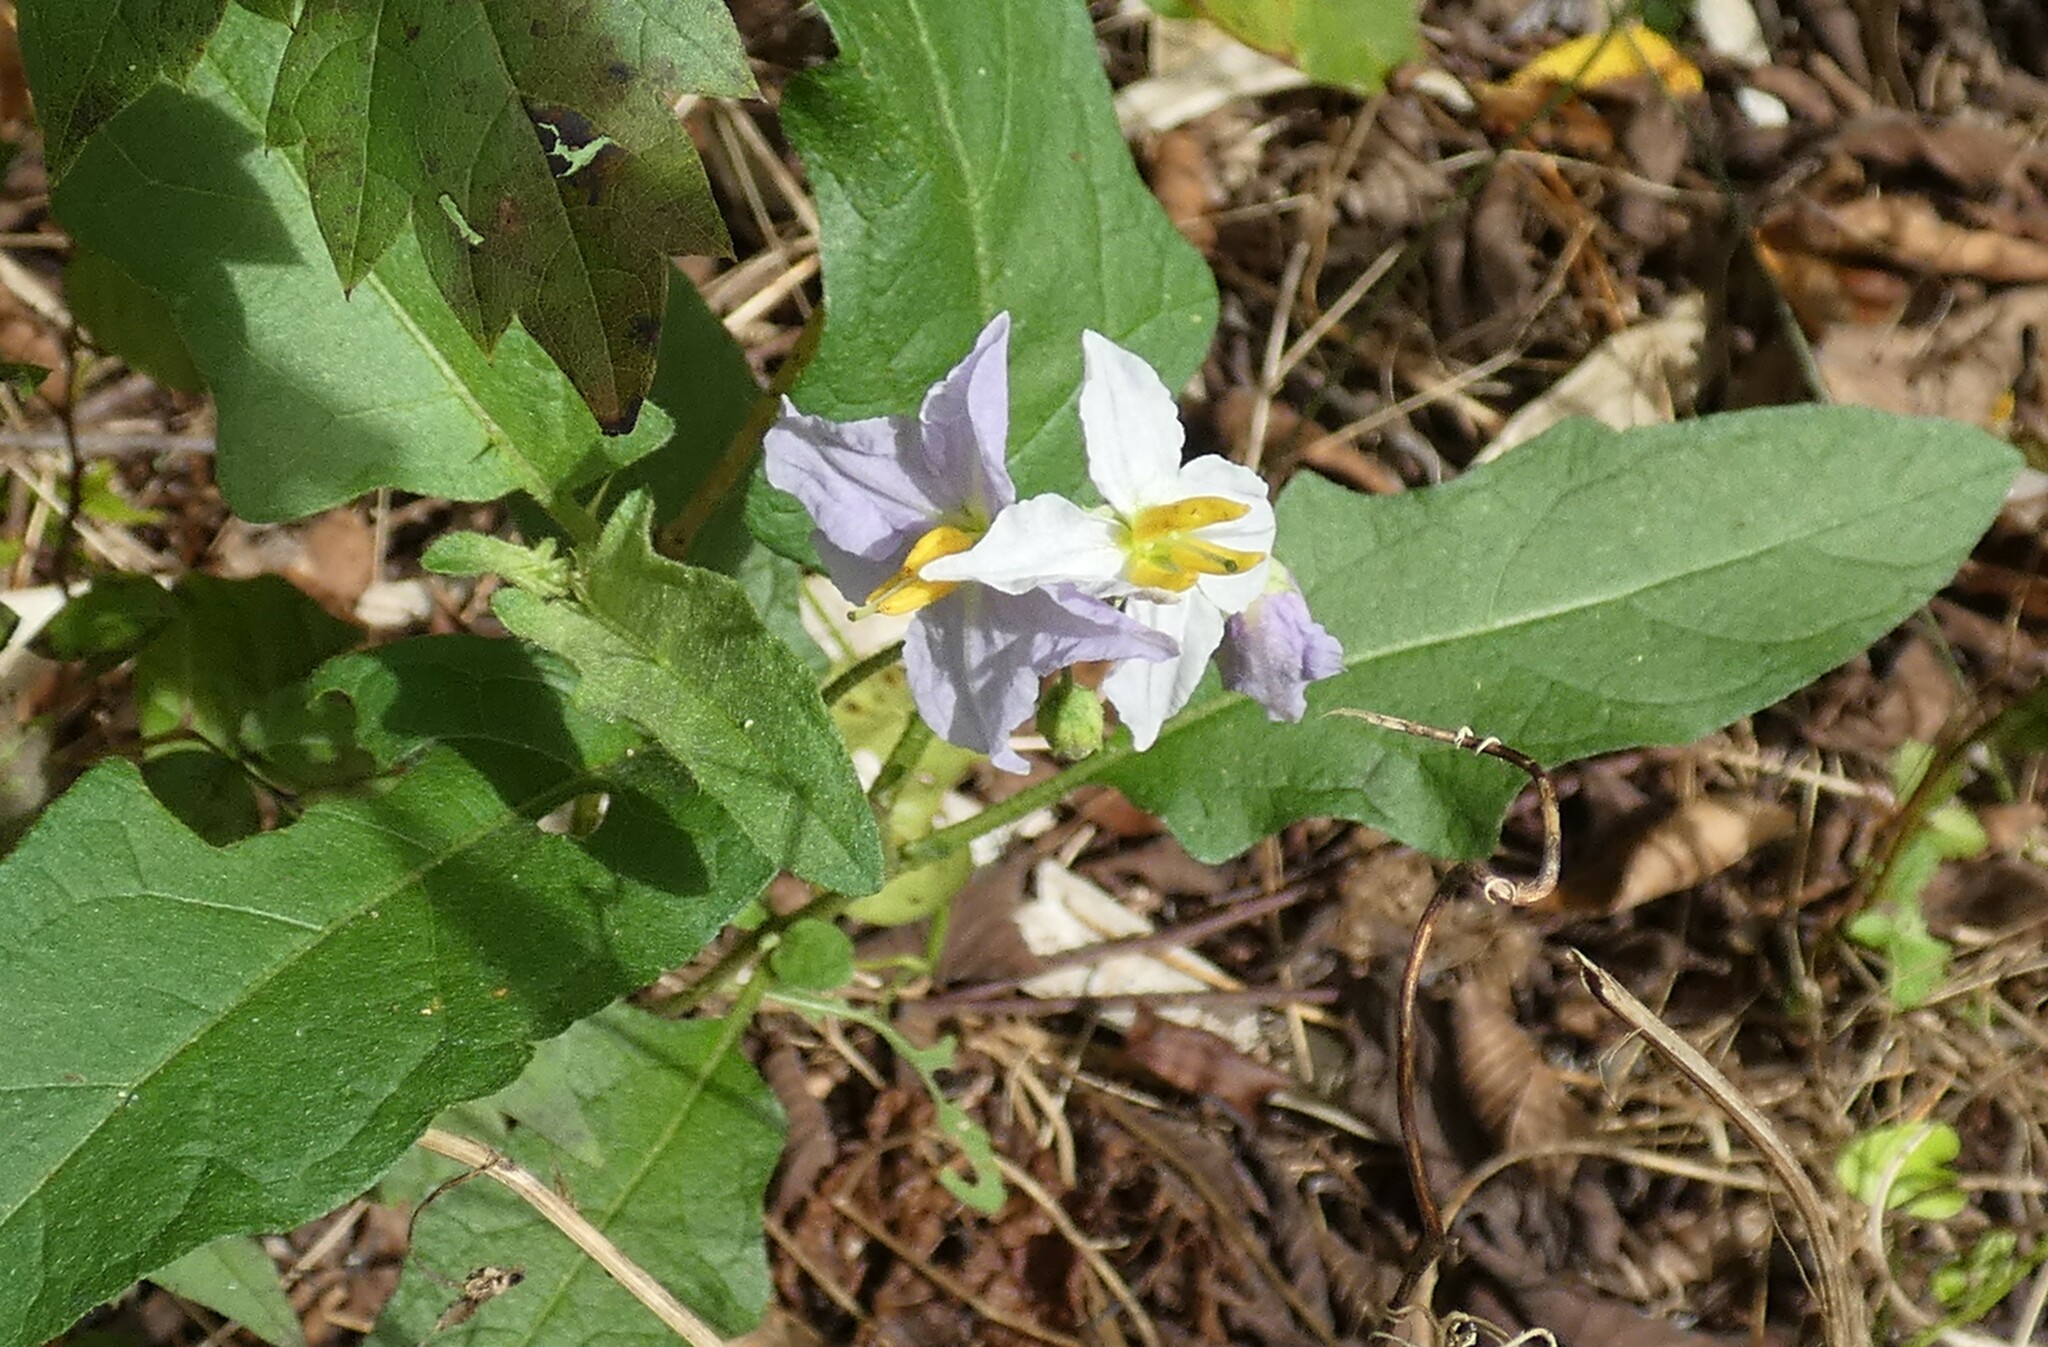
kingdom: Plantae
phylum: Tracheophyta
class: Magnoliopsida
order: Solanales
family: Solanaceae
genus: Solanum
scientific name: Solanum carolinense
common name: Horse-nettle
